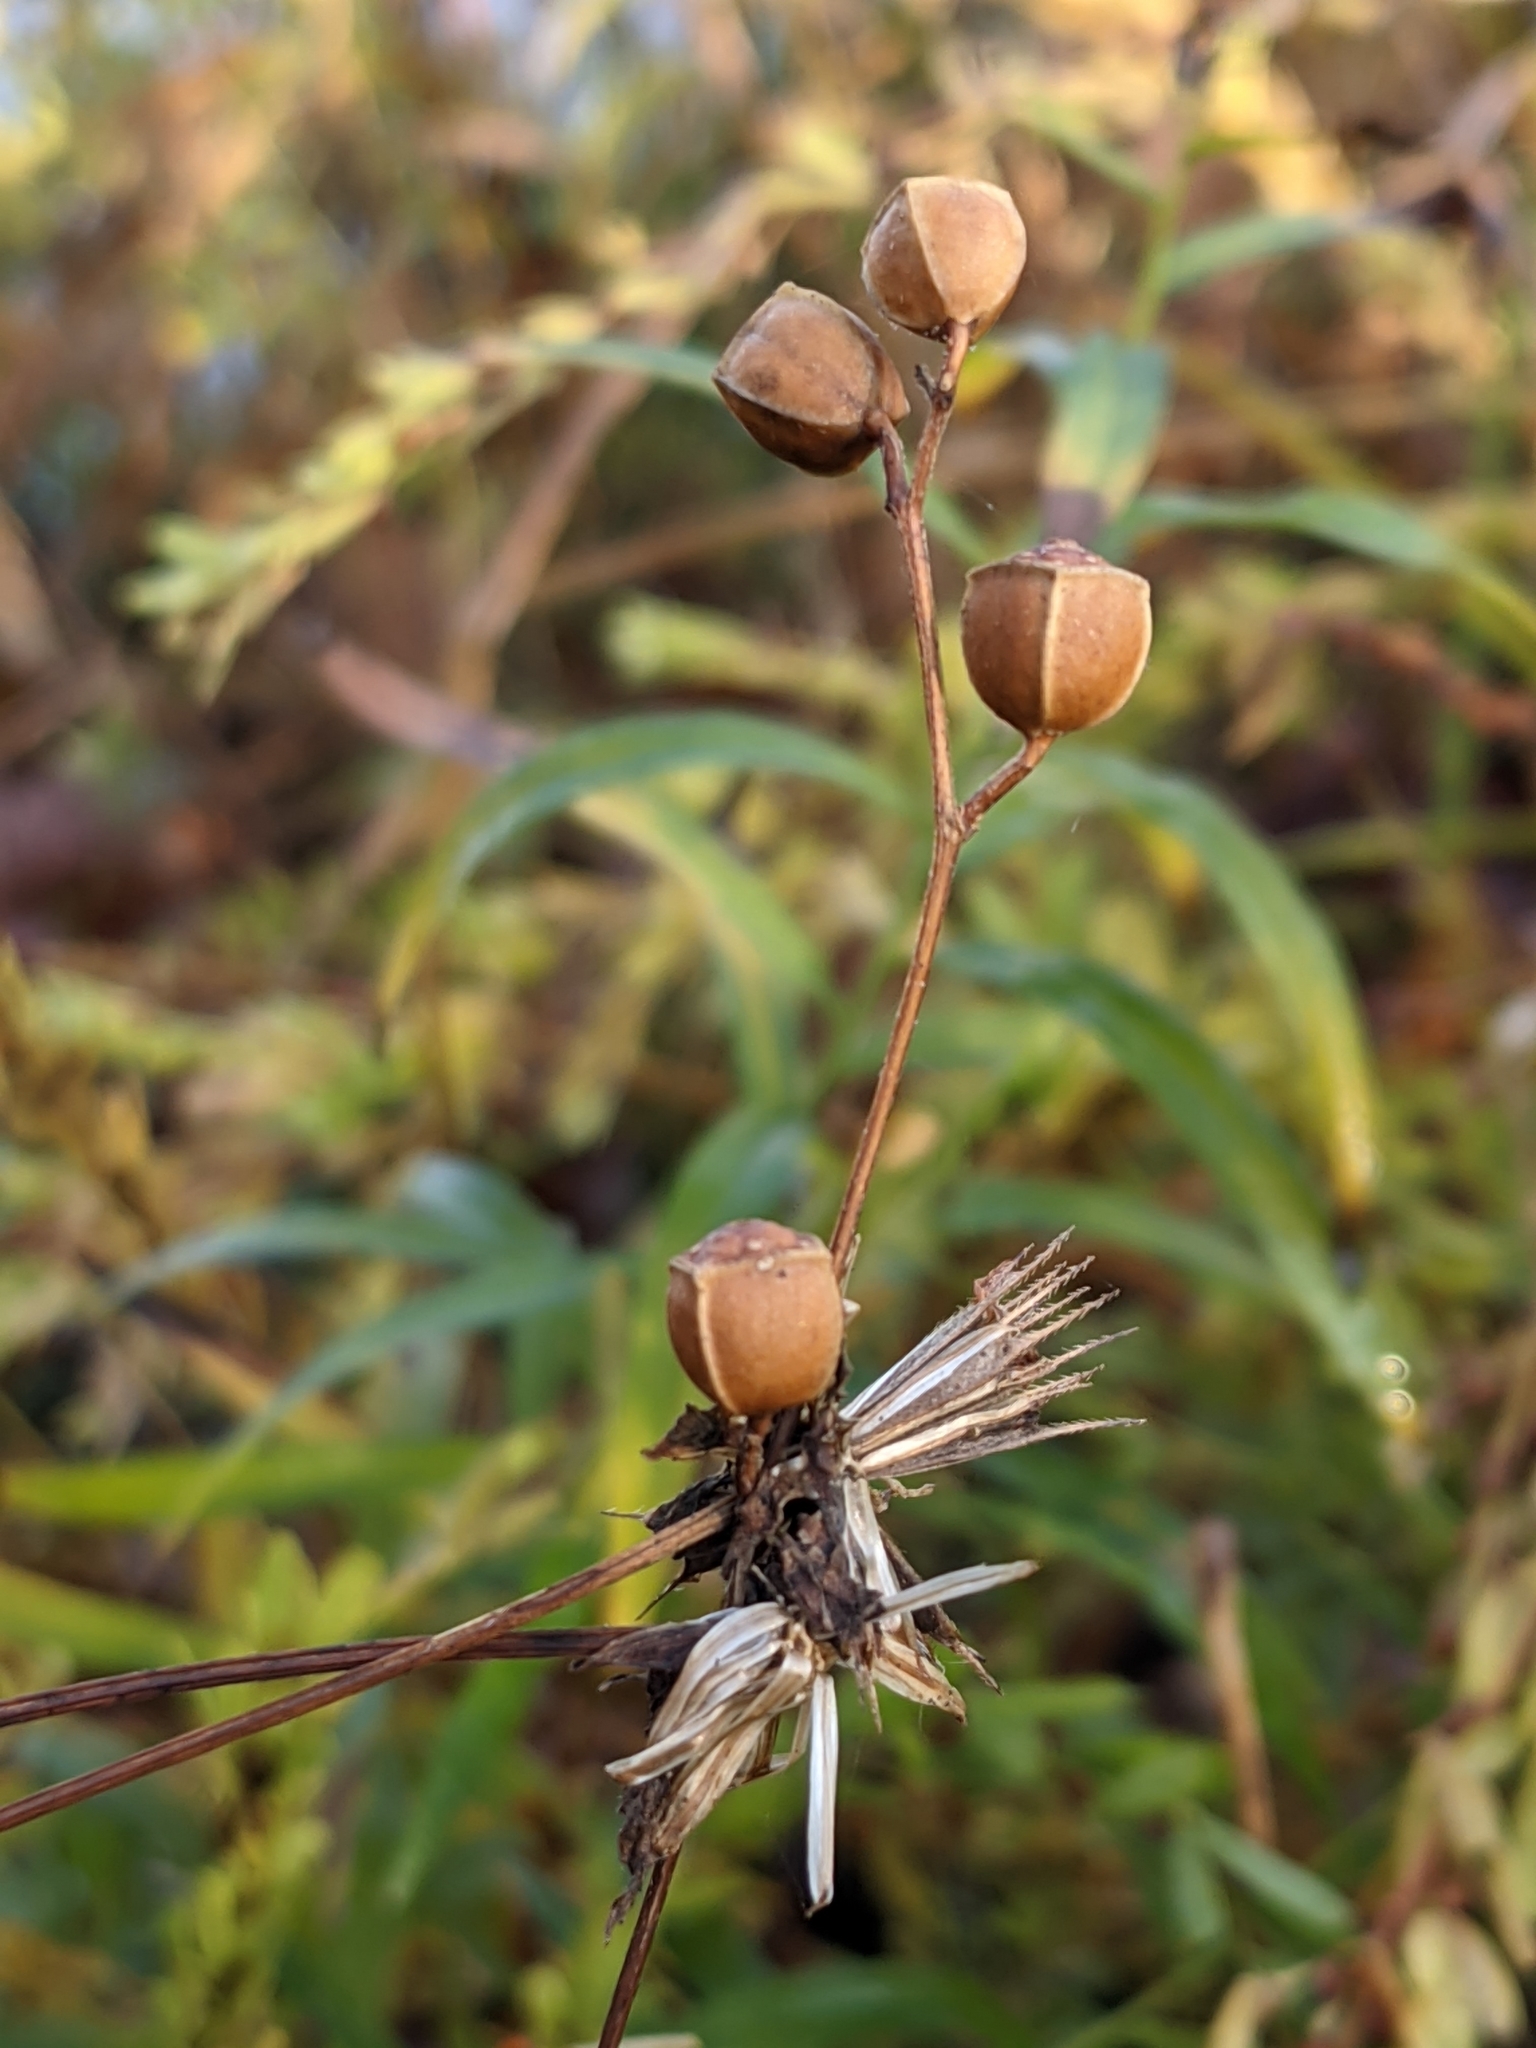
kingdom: Plantae
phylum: Tracheophyta
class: Magnoliopsida
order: Myrtales
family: Onagraceae
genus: Ludwigia
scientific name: Ludwigia alternifolia
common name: Rattlebox
